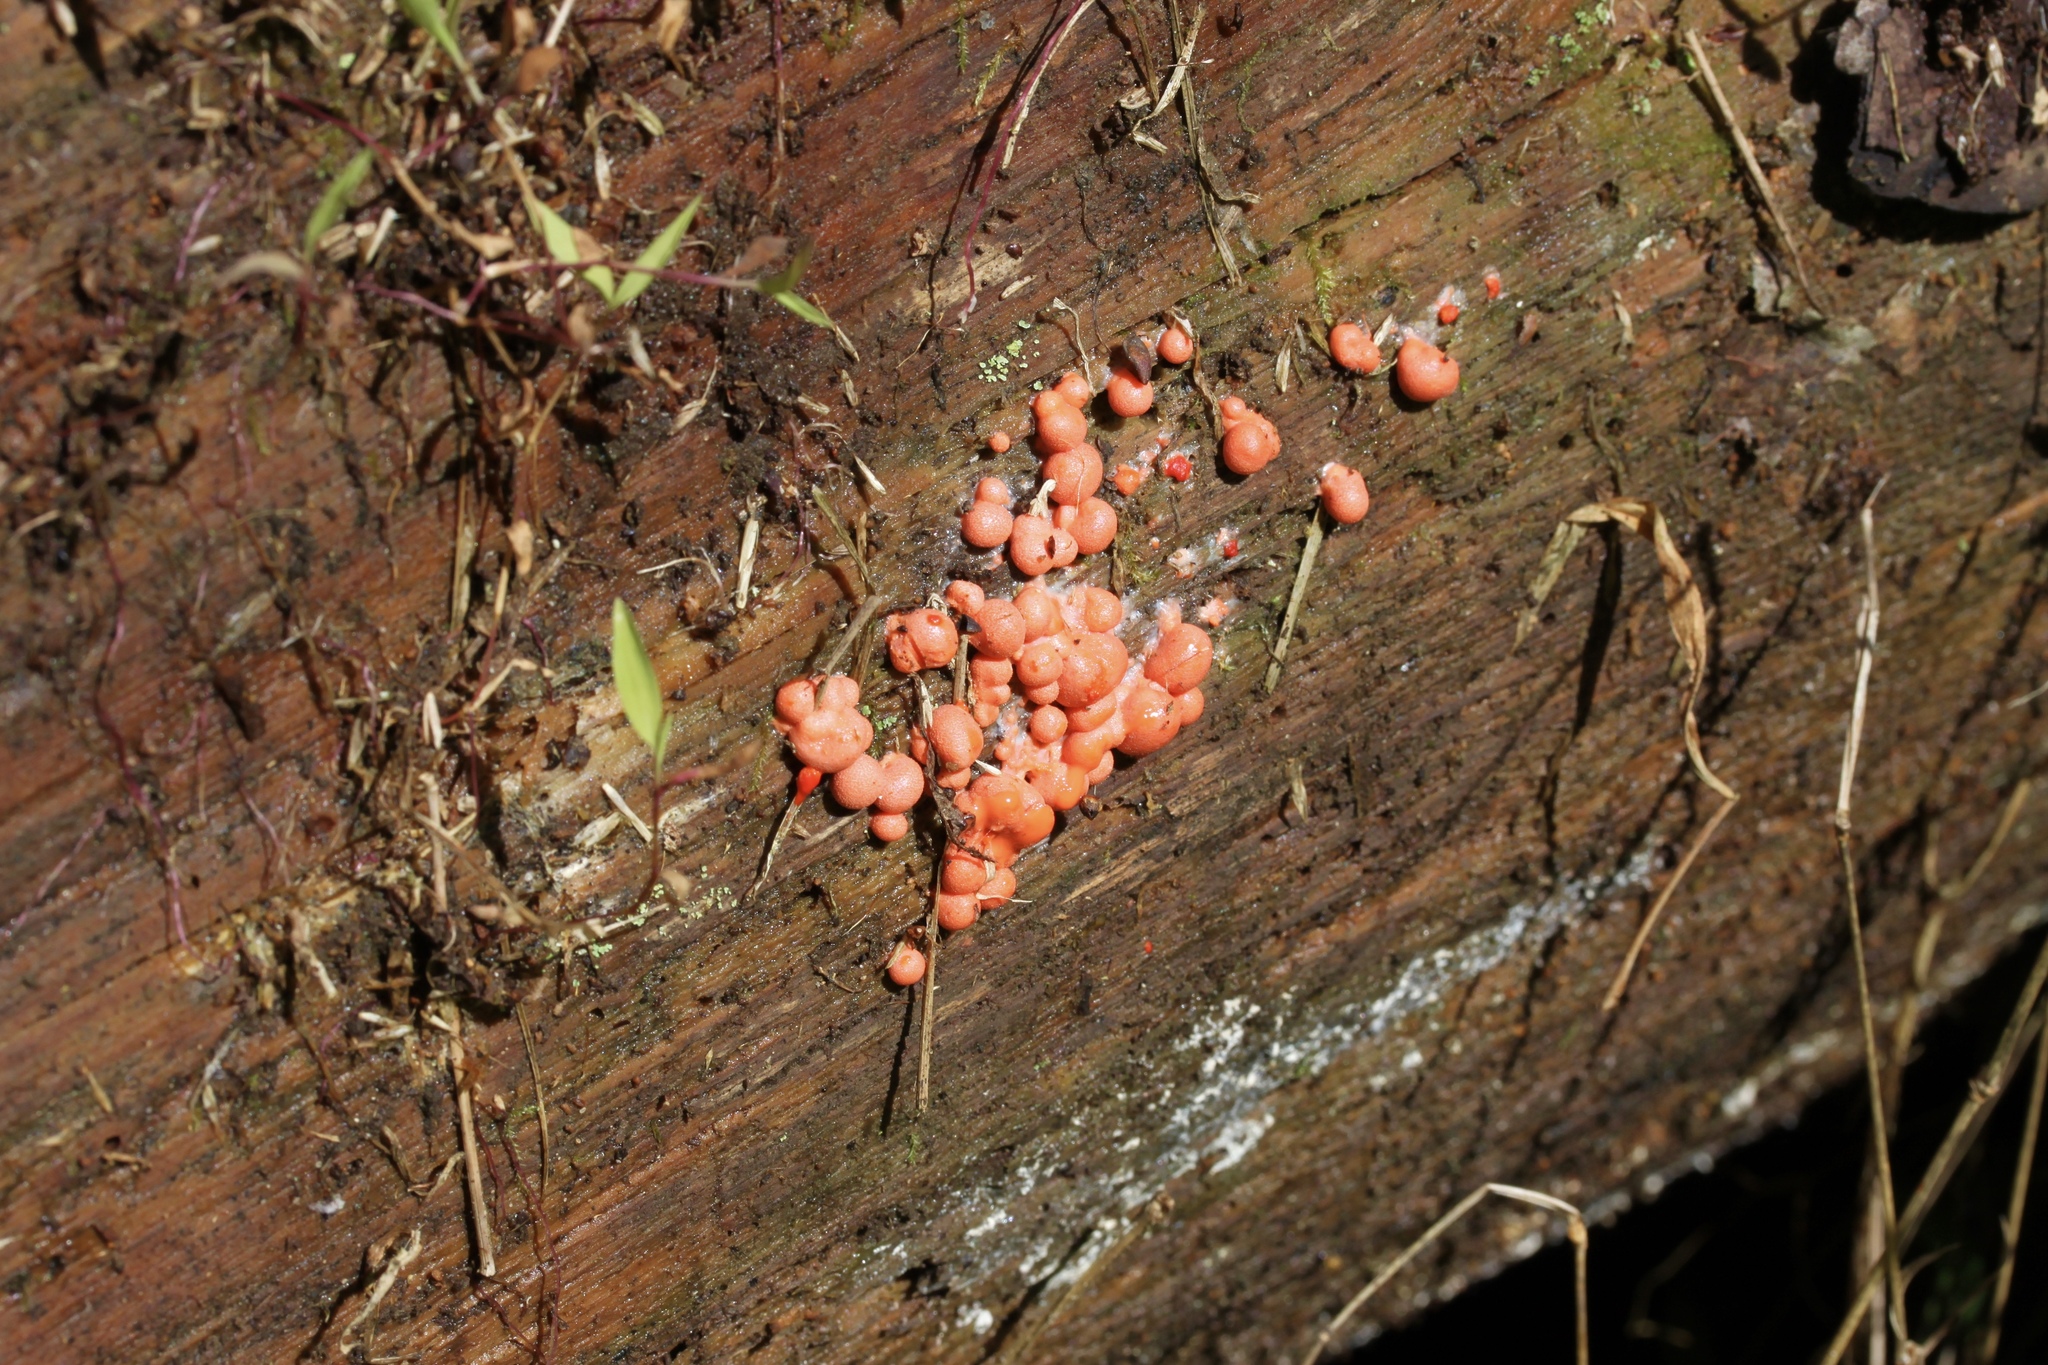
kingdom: Protozoa
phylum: Mycetozoa
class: Myxomycetes
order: Cribrariales
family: Tubiferaceae
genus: Lycogala
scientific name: Lycogala epidendrum
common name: Wolf's milk
